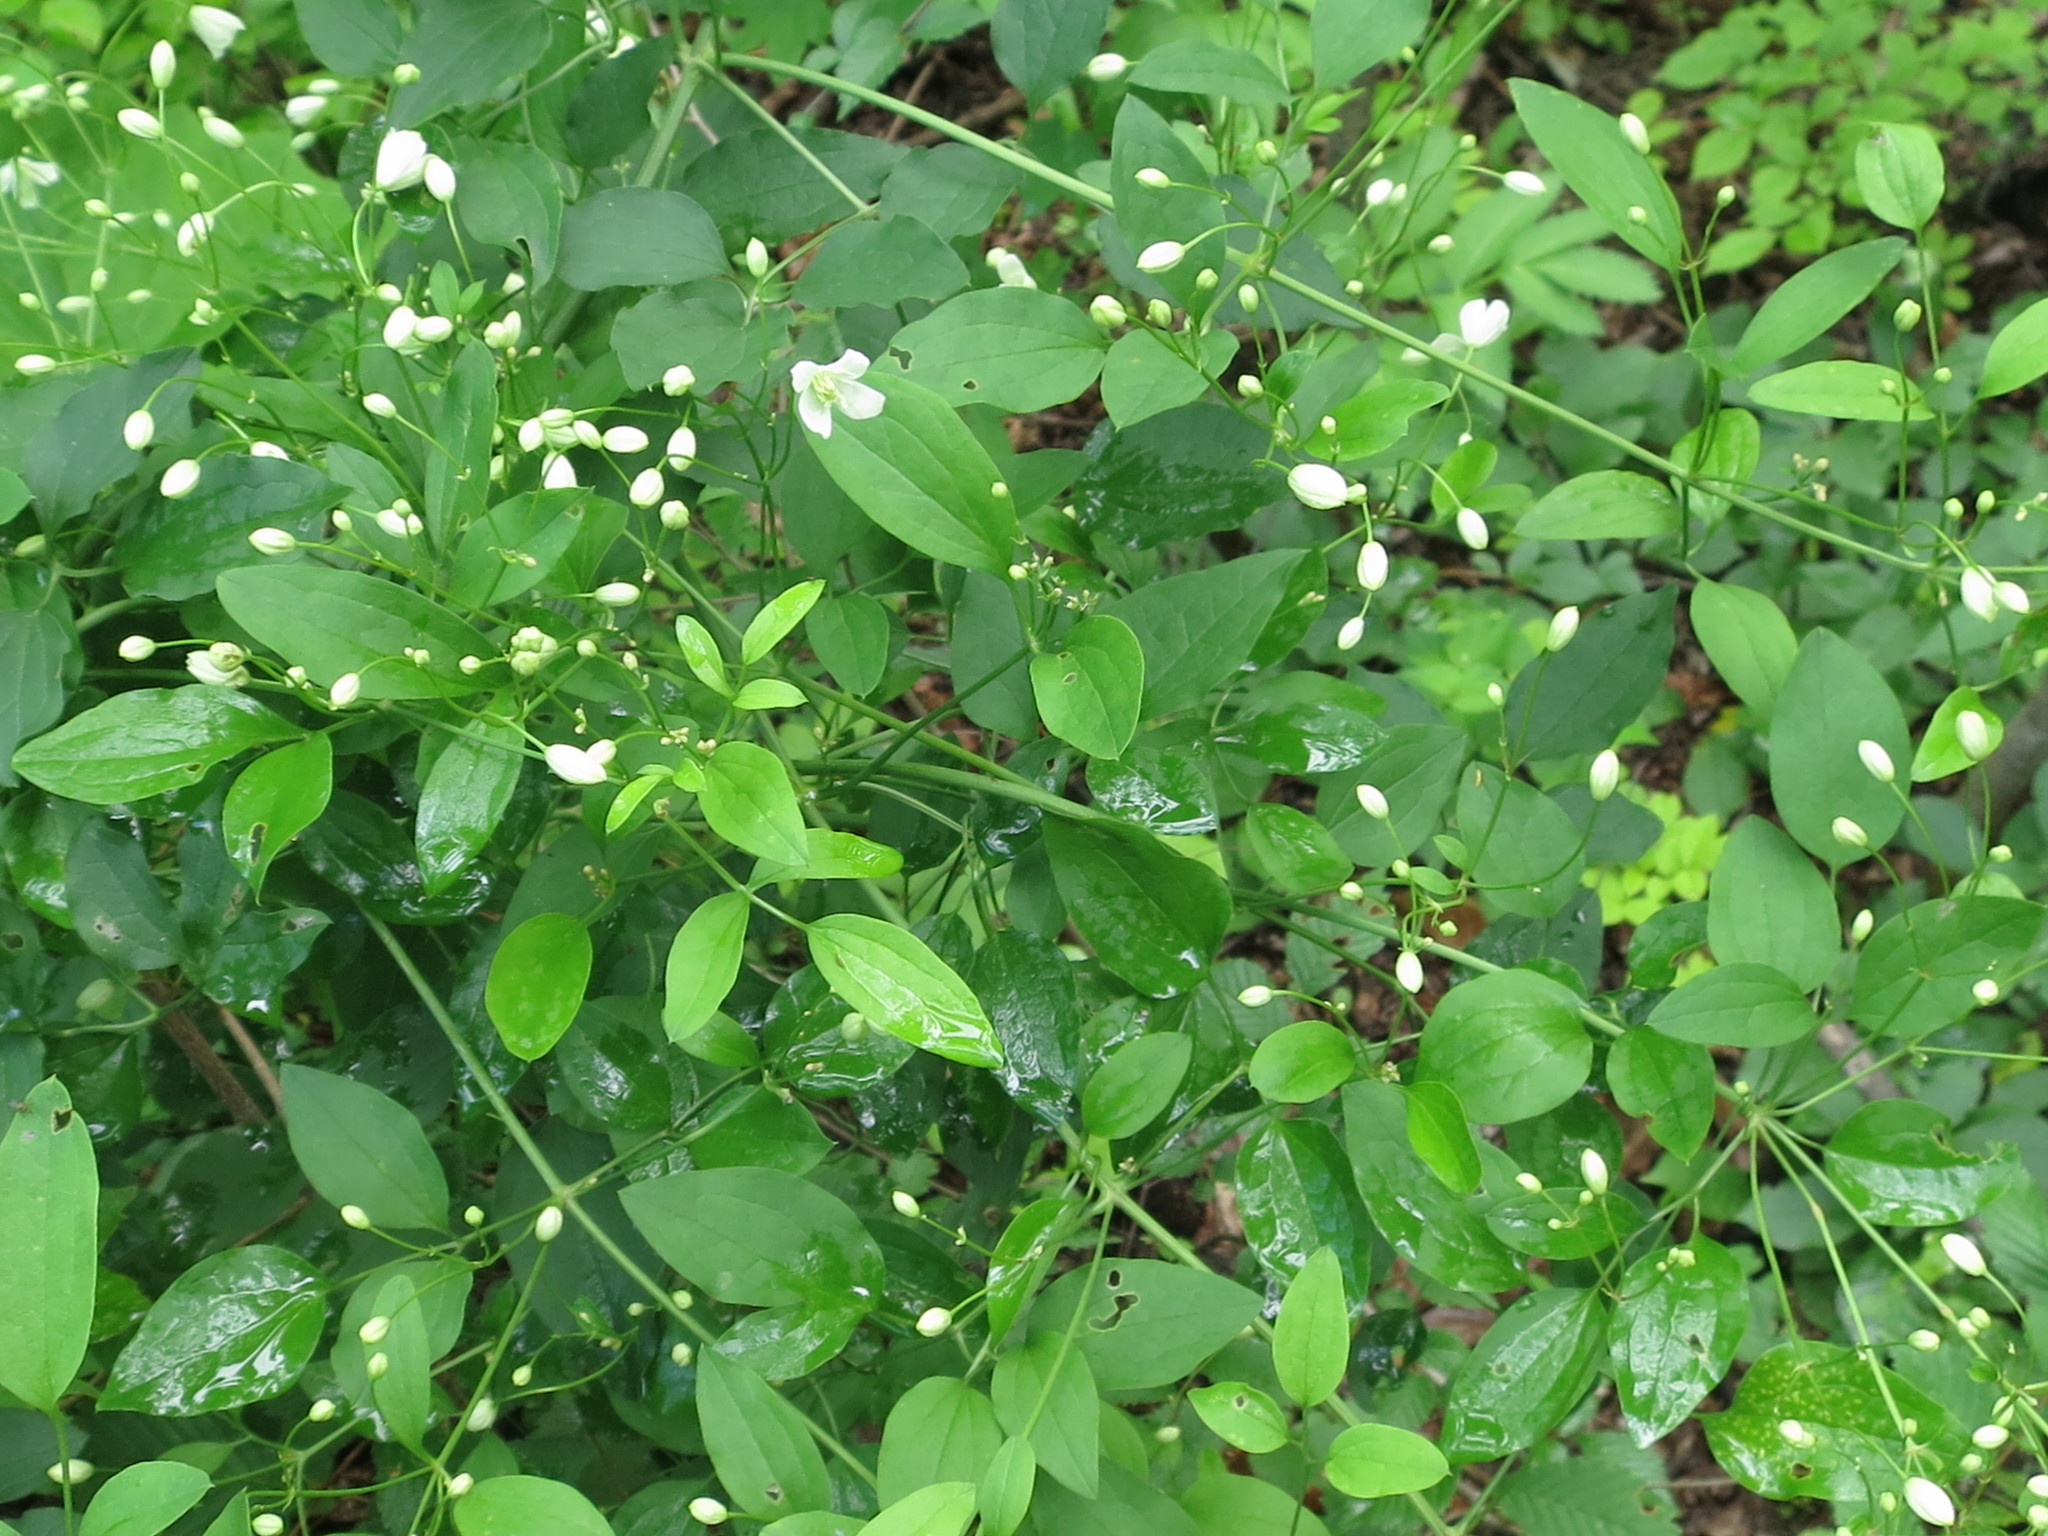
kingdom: Plantae
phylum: Tracheophyta
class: Magnoliopsida
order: Ranunculales
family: Ranunculaceae
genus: Clematis
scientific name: Clematis terniflora
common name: Sweet autumn clematis
